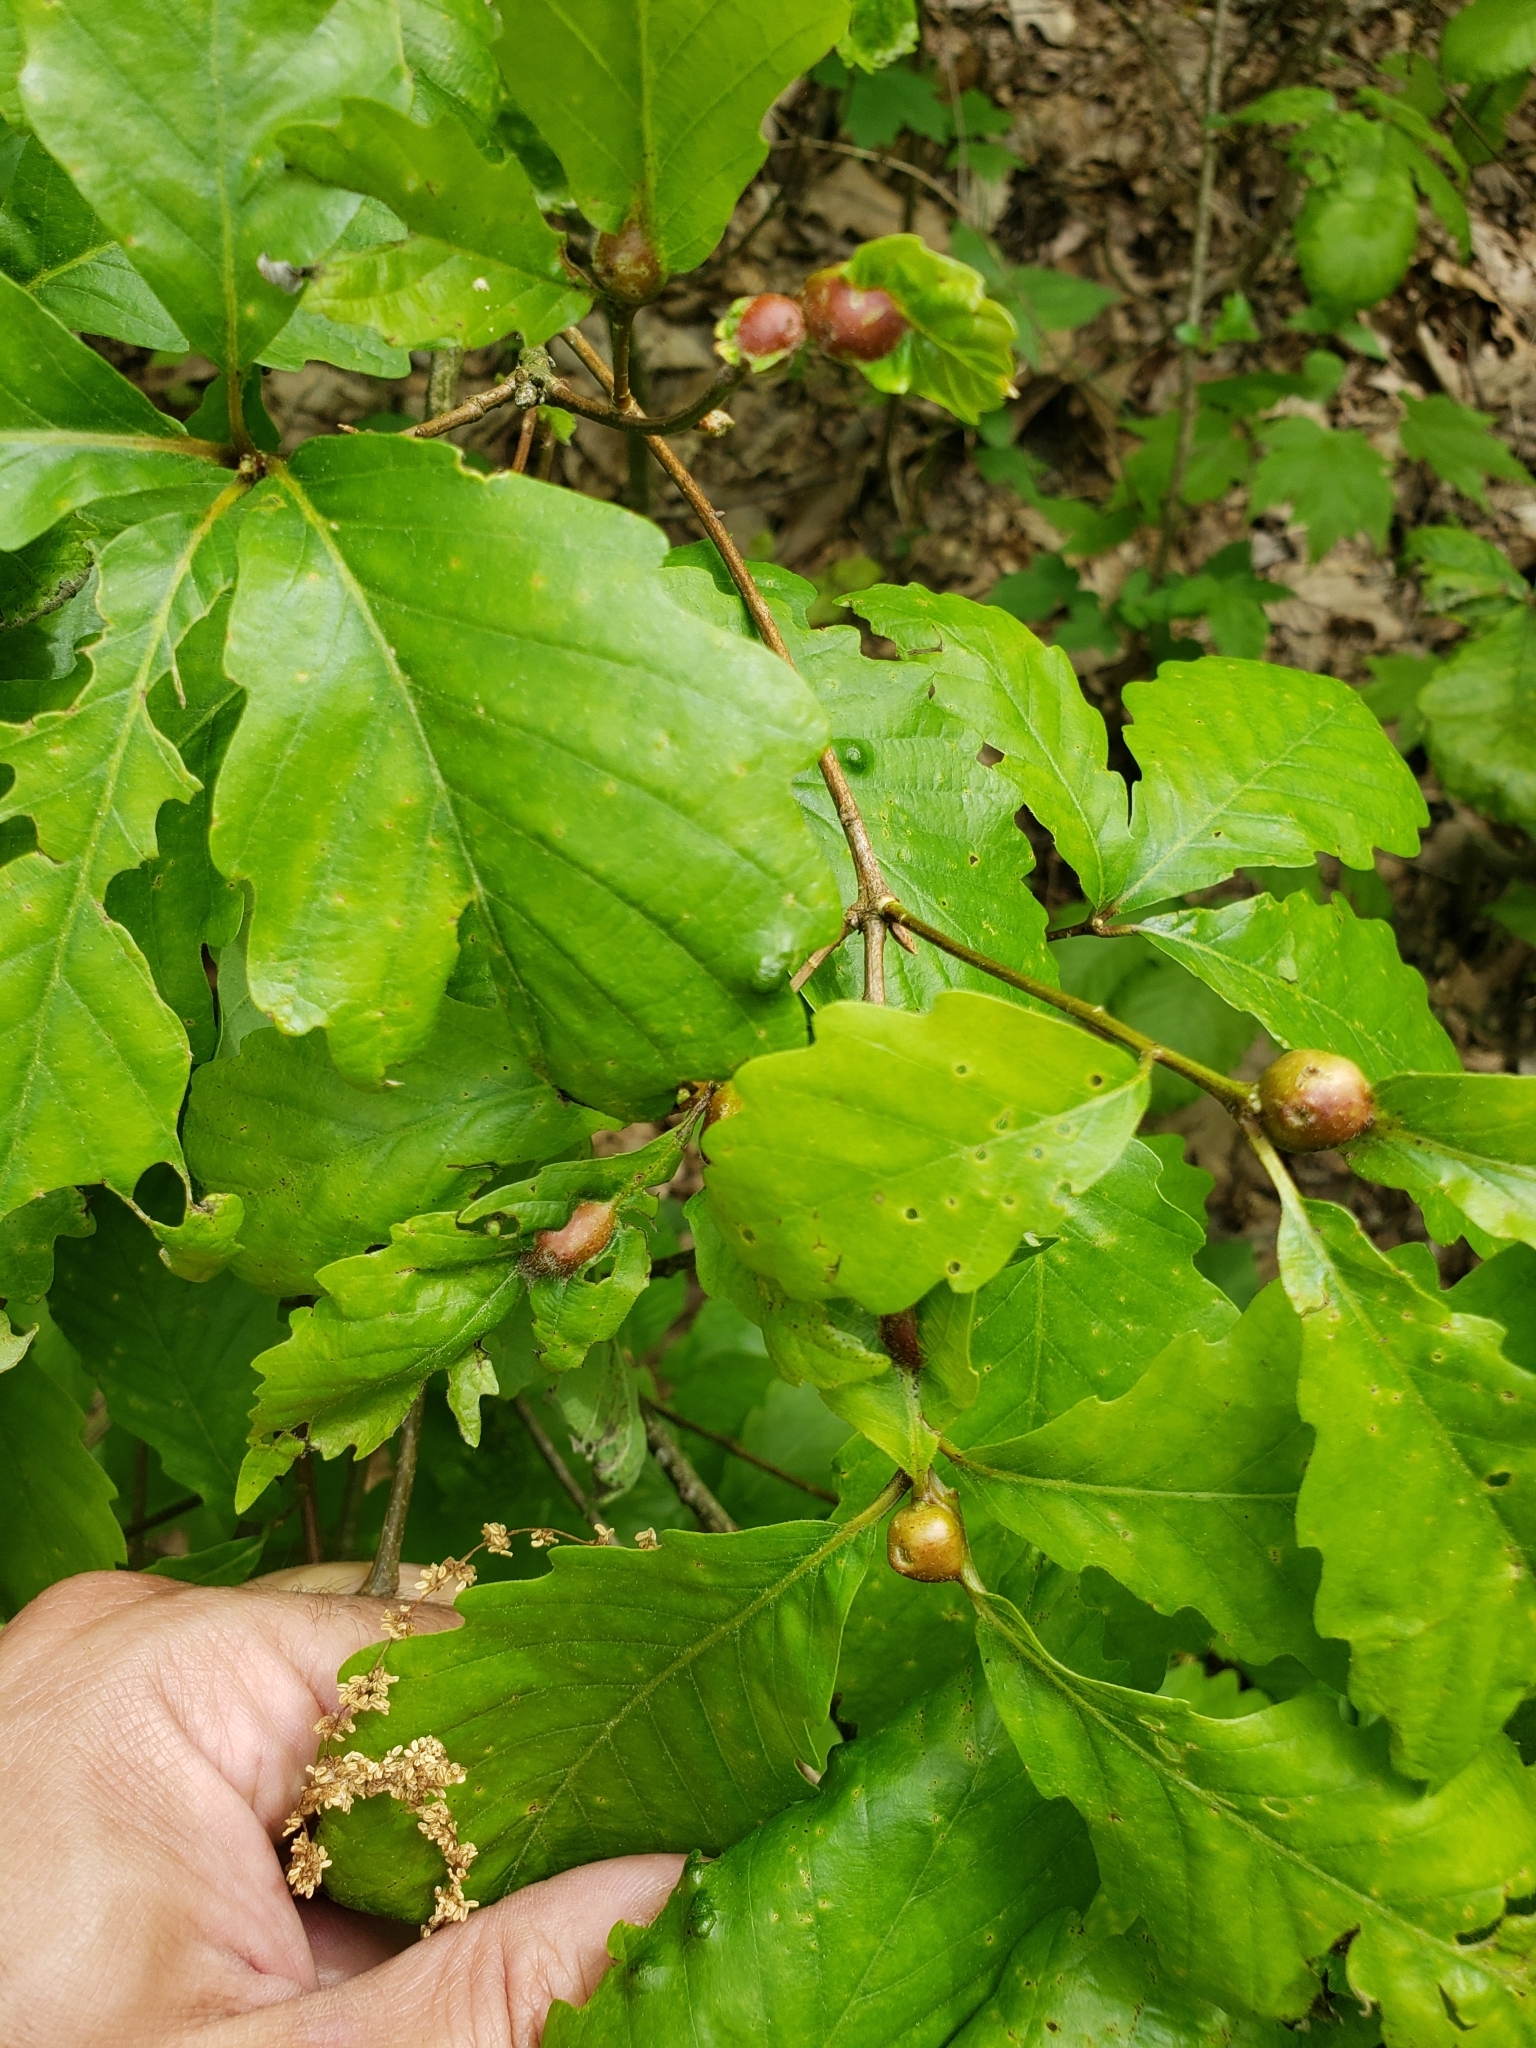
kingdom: Animalia
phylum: Arthropoda
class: Insecta
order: Hymenoptera
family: Cynipidae
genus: Andricus
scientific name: Andricus
